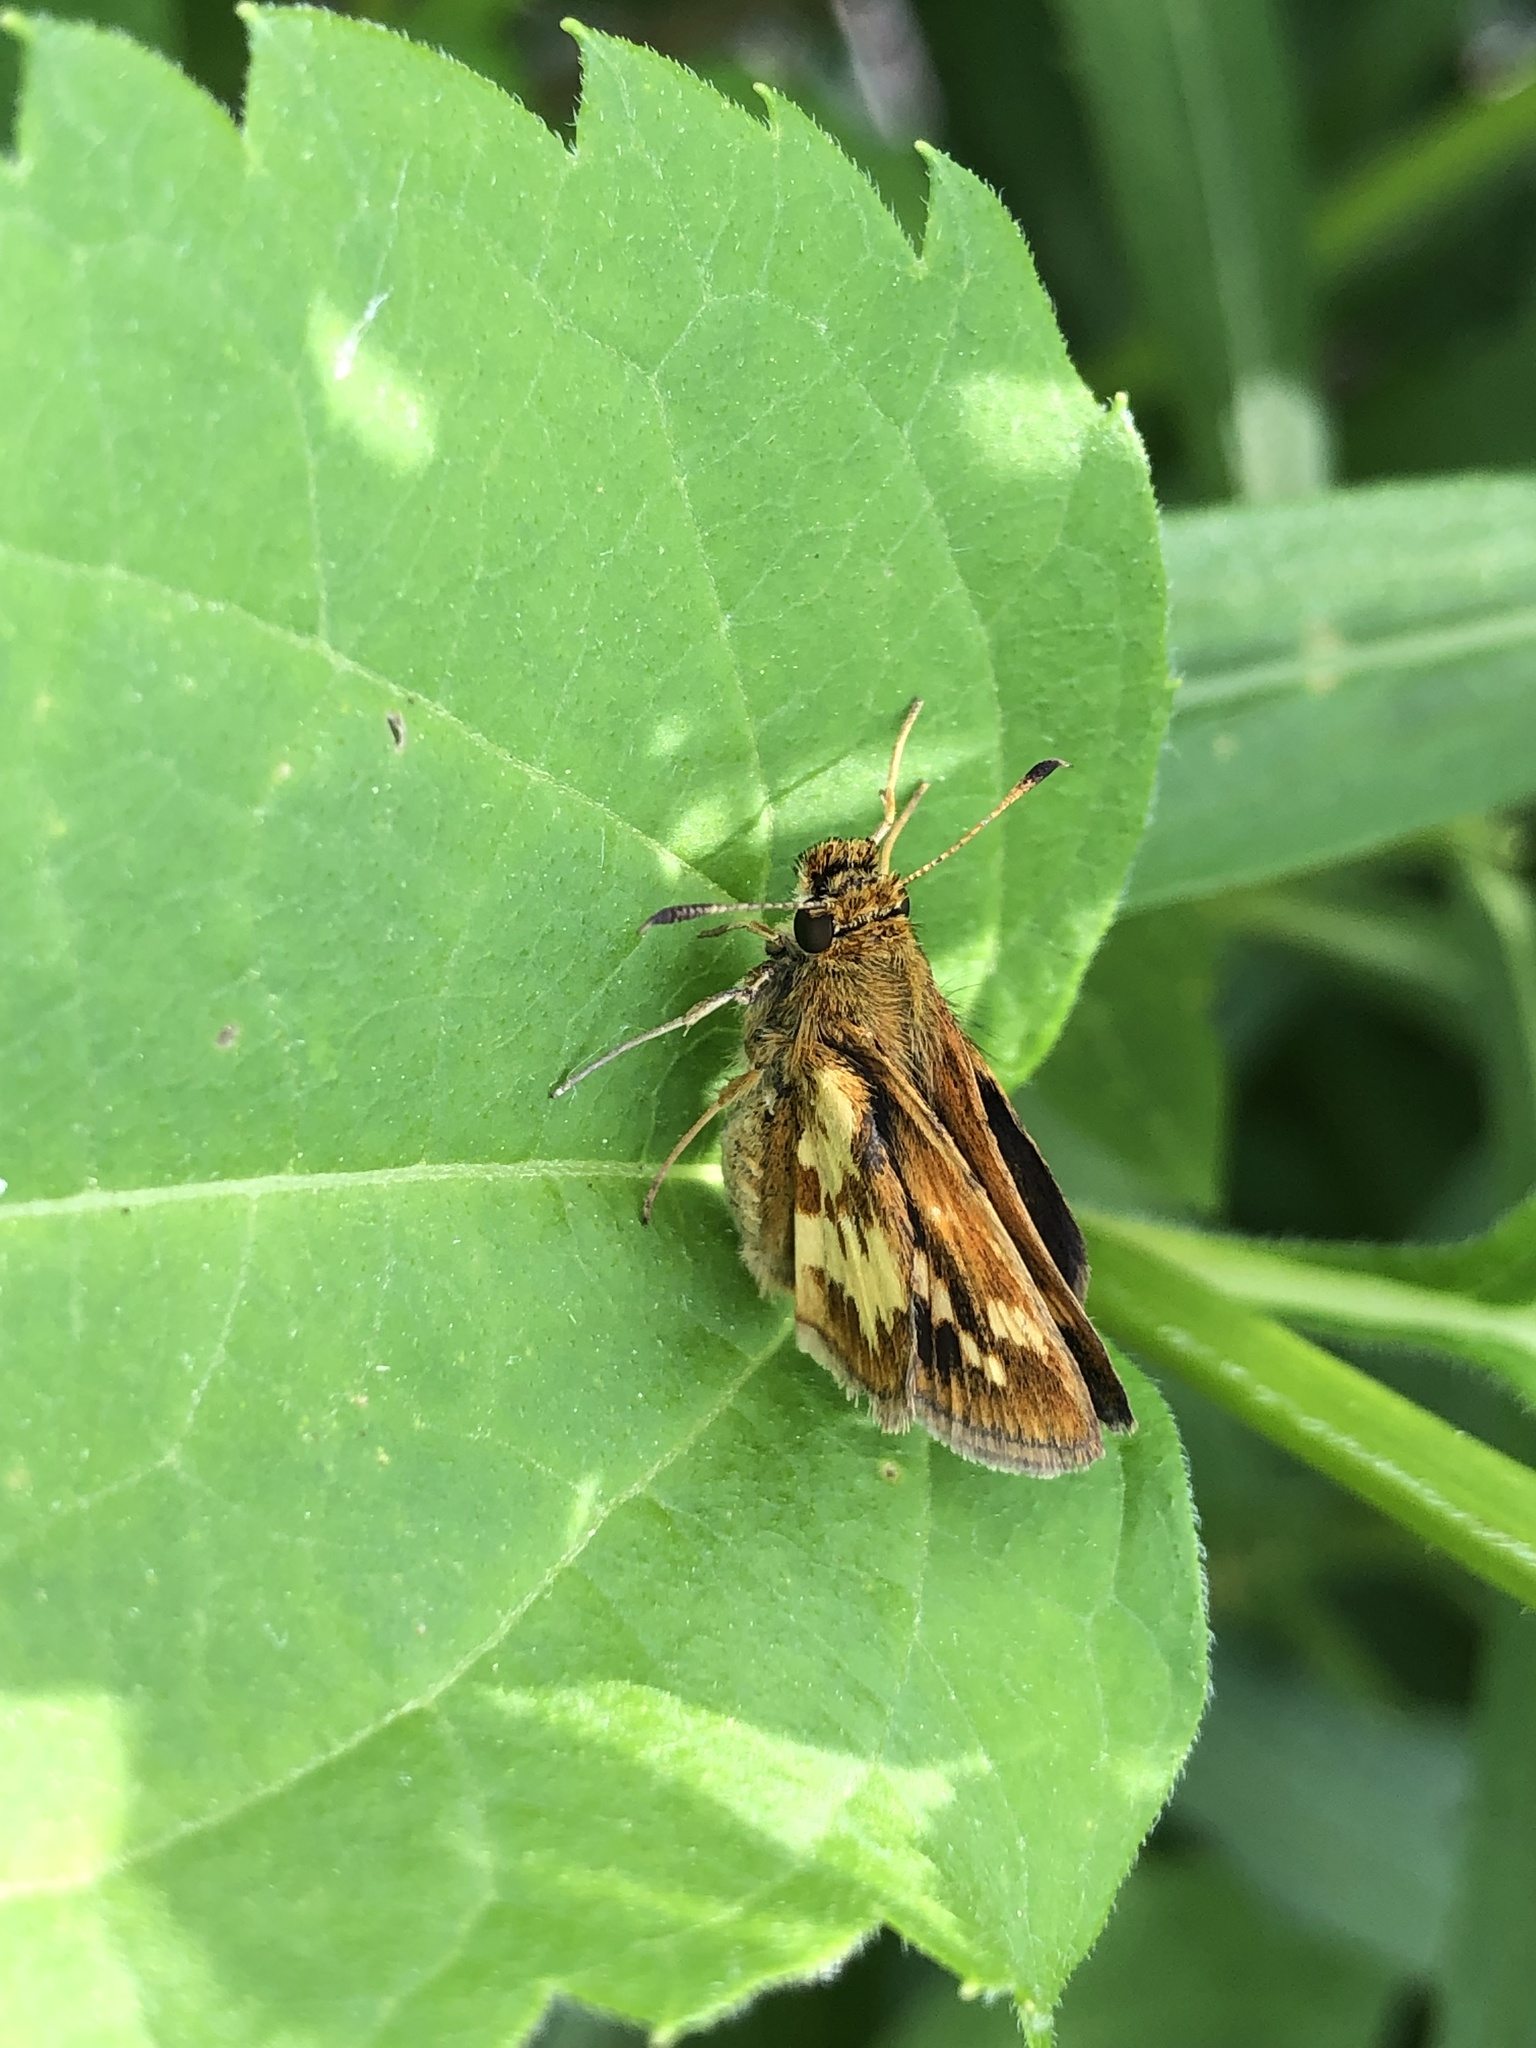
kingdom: Animalia
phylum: Arthropoda
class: Insecta
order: Lepidoptera
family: Hesperiidae
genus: Polites
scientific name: Polites coras
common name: Peck's skipper
